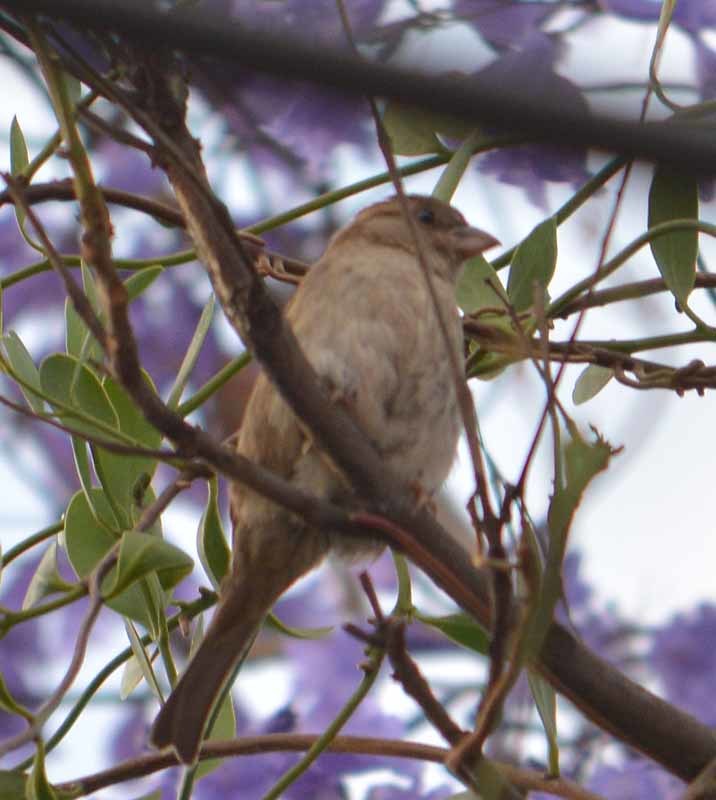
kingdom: Animalia
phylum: Chordata
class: Aves
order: Passeriformes
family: Passeridae
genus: Passer
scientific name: Passer domesticus
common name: House sparrow
